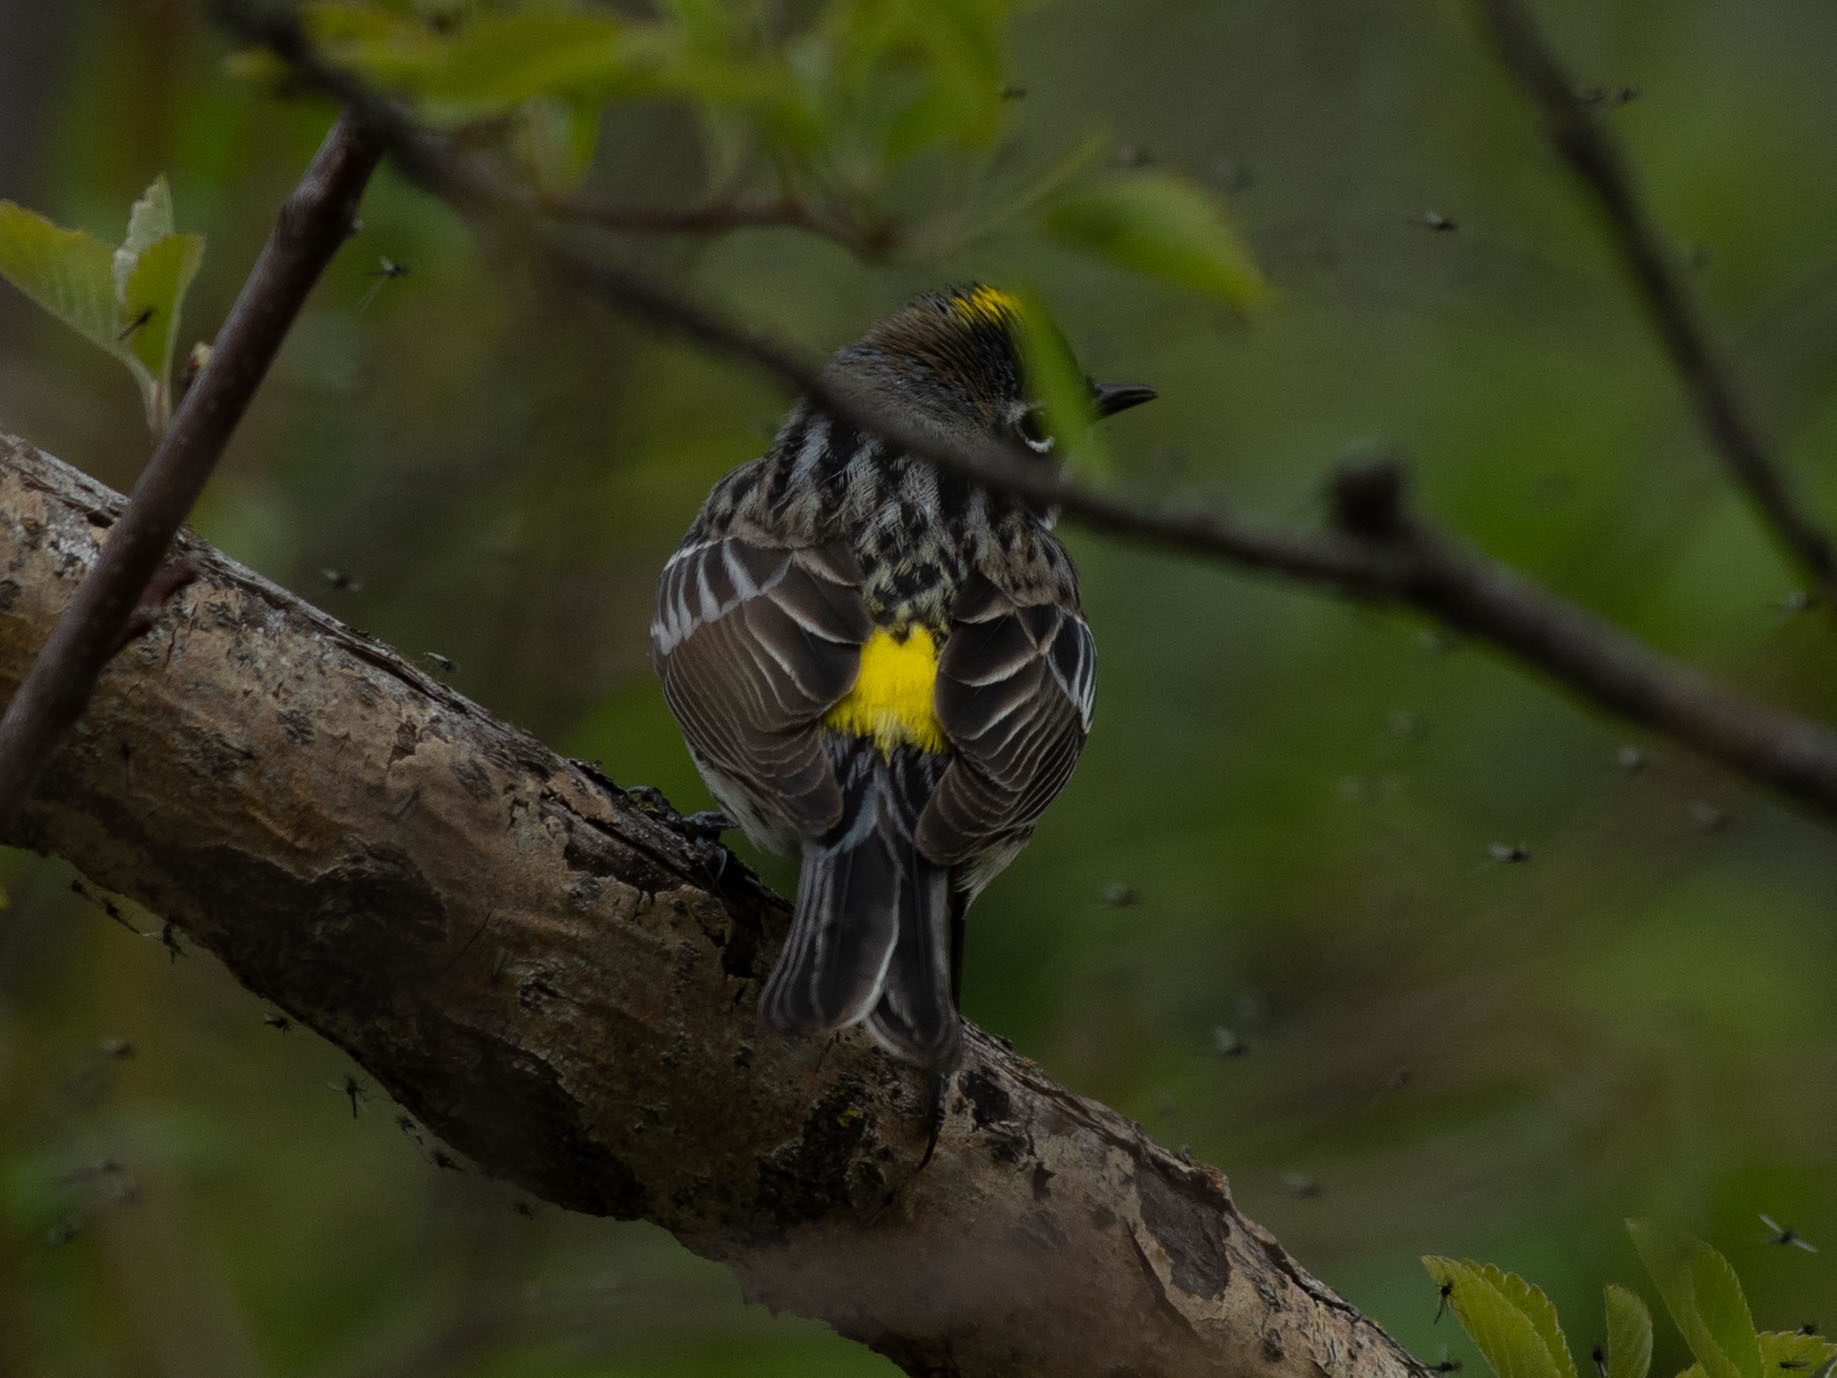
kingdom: Animalia
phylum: Chordata
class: Aves
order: Passeriformes
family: Parulidae
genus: Setophaga
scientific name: Setophaga coronata
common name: Myrtle warbler
